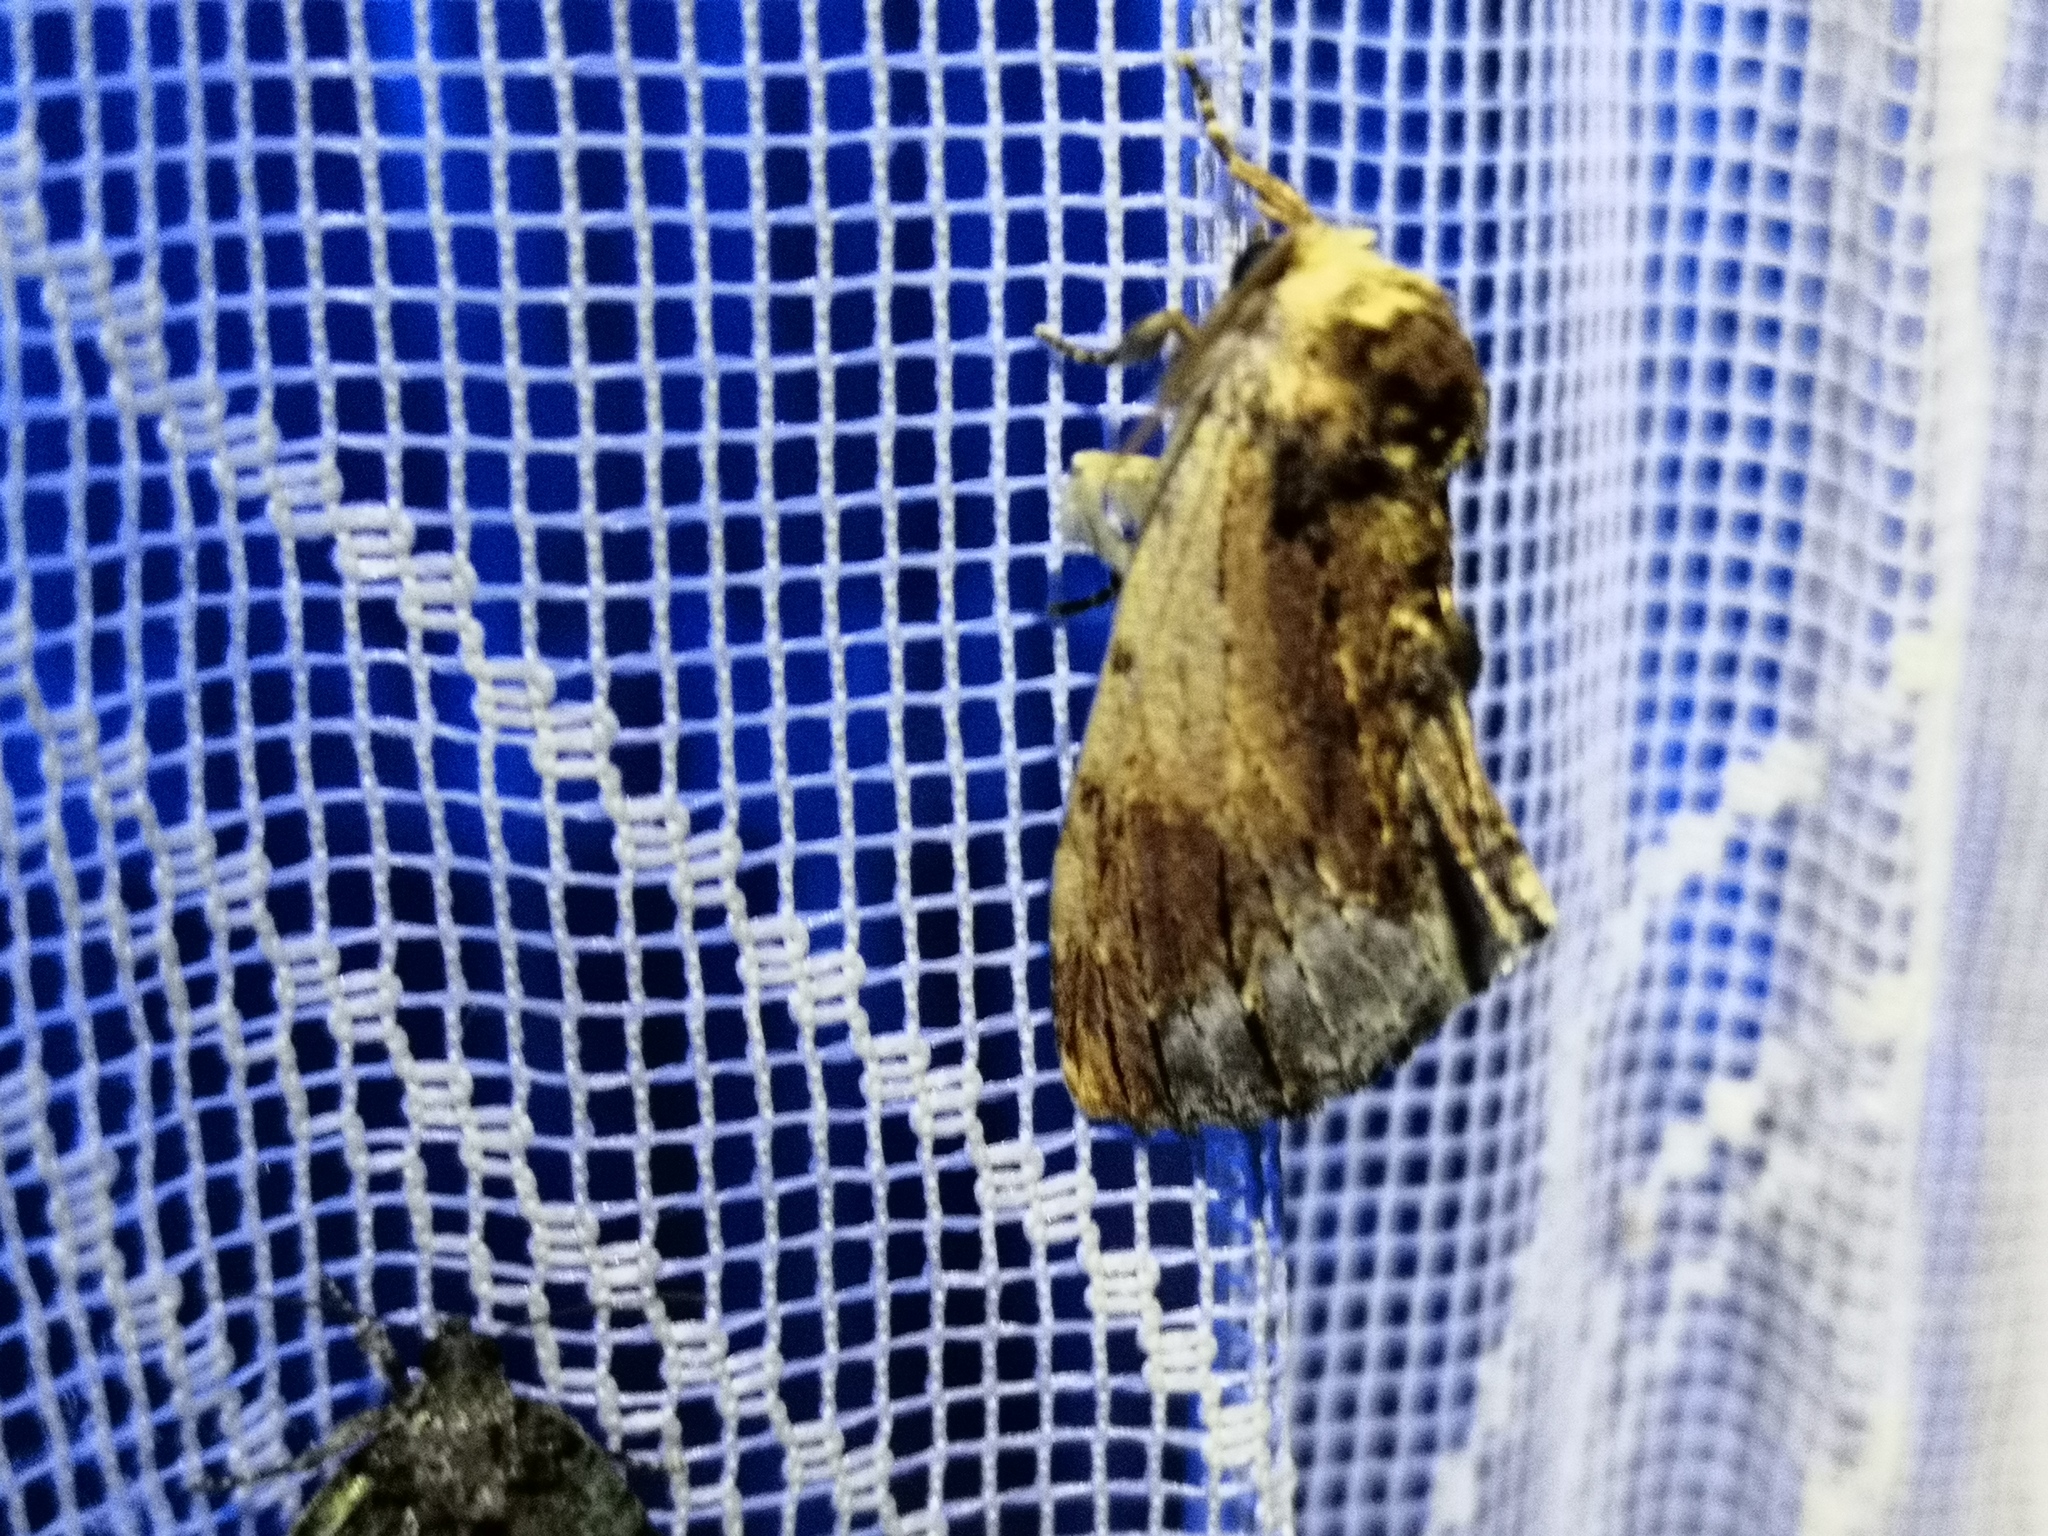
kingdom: Animalia
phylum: Arthropoda
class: Insecta
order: Lepidoptera
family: Notodontidae
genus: Ptilodon
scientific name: Ptilodon cucullina
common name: Maple prominent
